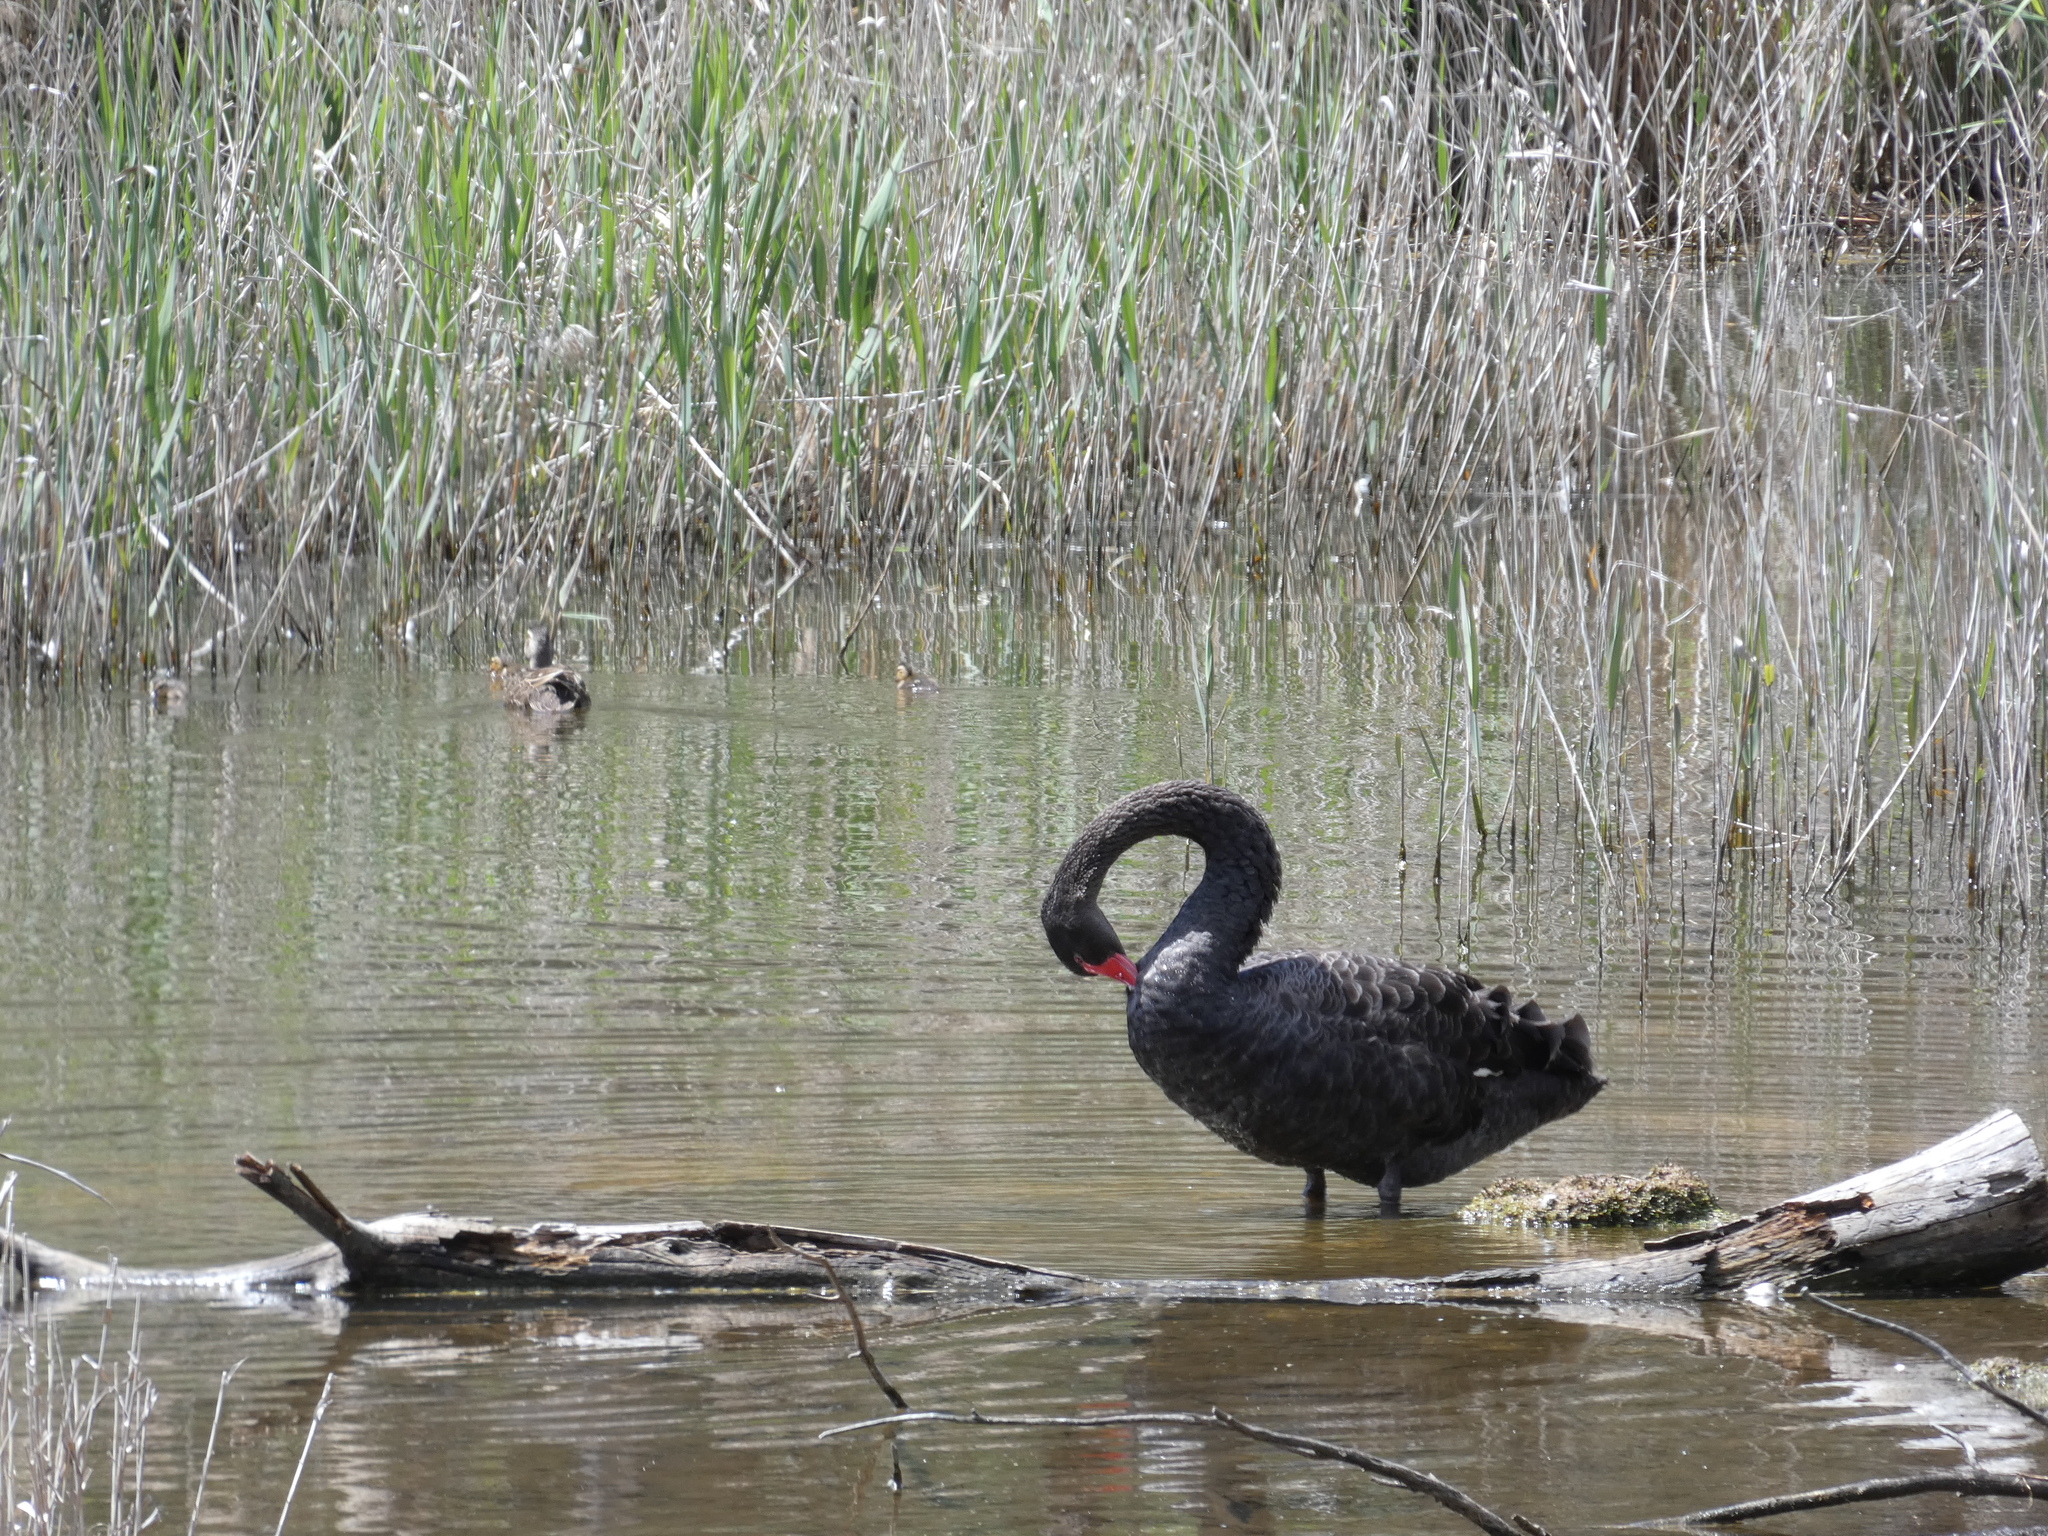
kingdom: Animalia
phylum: Chordata
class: Aves
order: Anseriformes
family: Anatidae
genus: Cygnus
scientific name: Cygnus atratus
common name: Black swan
